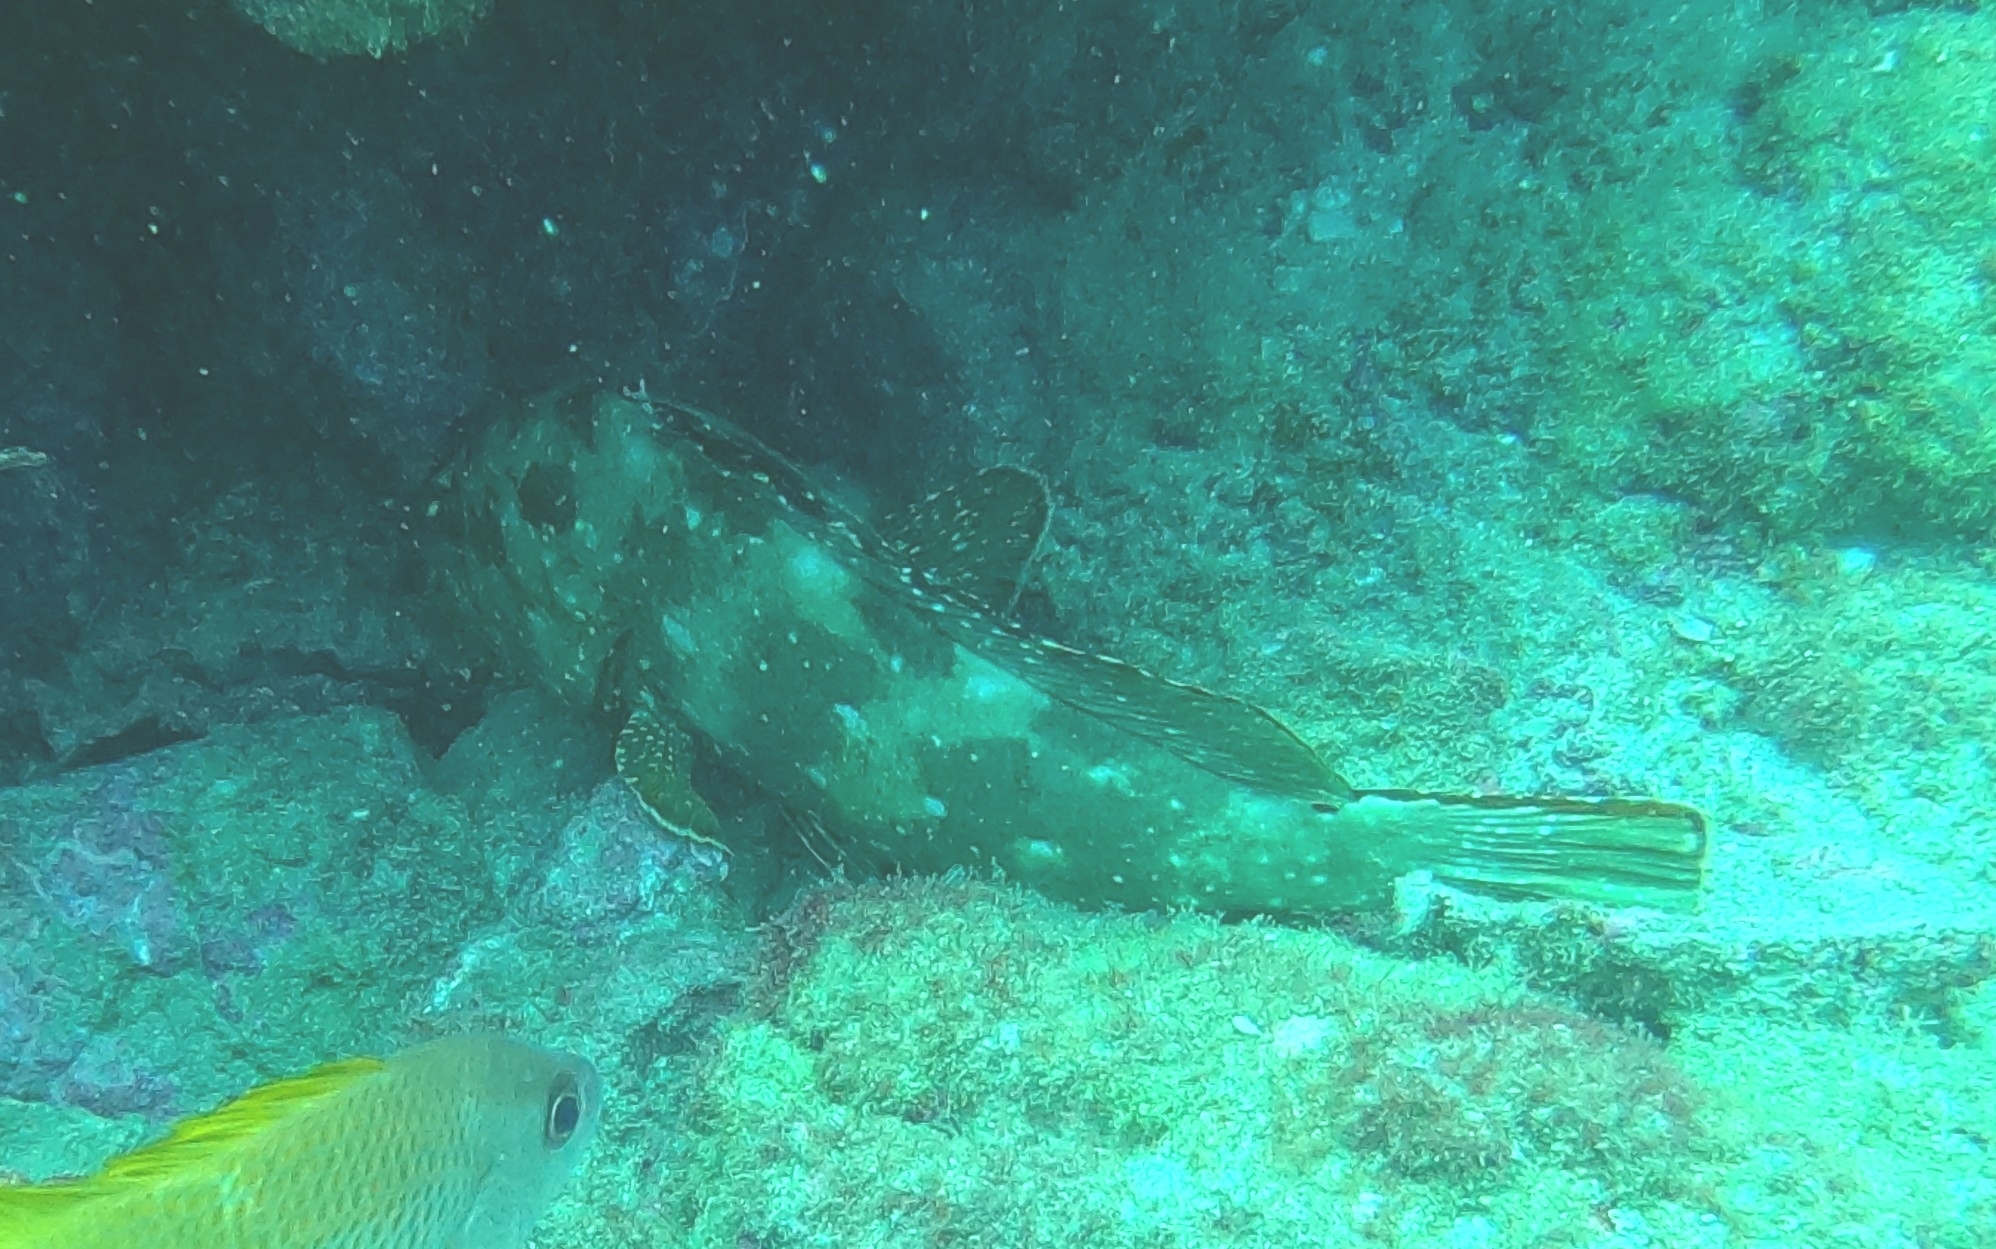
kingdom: Animalia
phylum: Chordata
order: Perciformes
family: Serranidae
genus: Epinephelus
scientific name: Epinephelus labriformis
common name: Flag cabrilla
